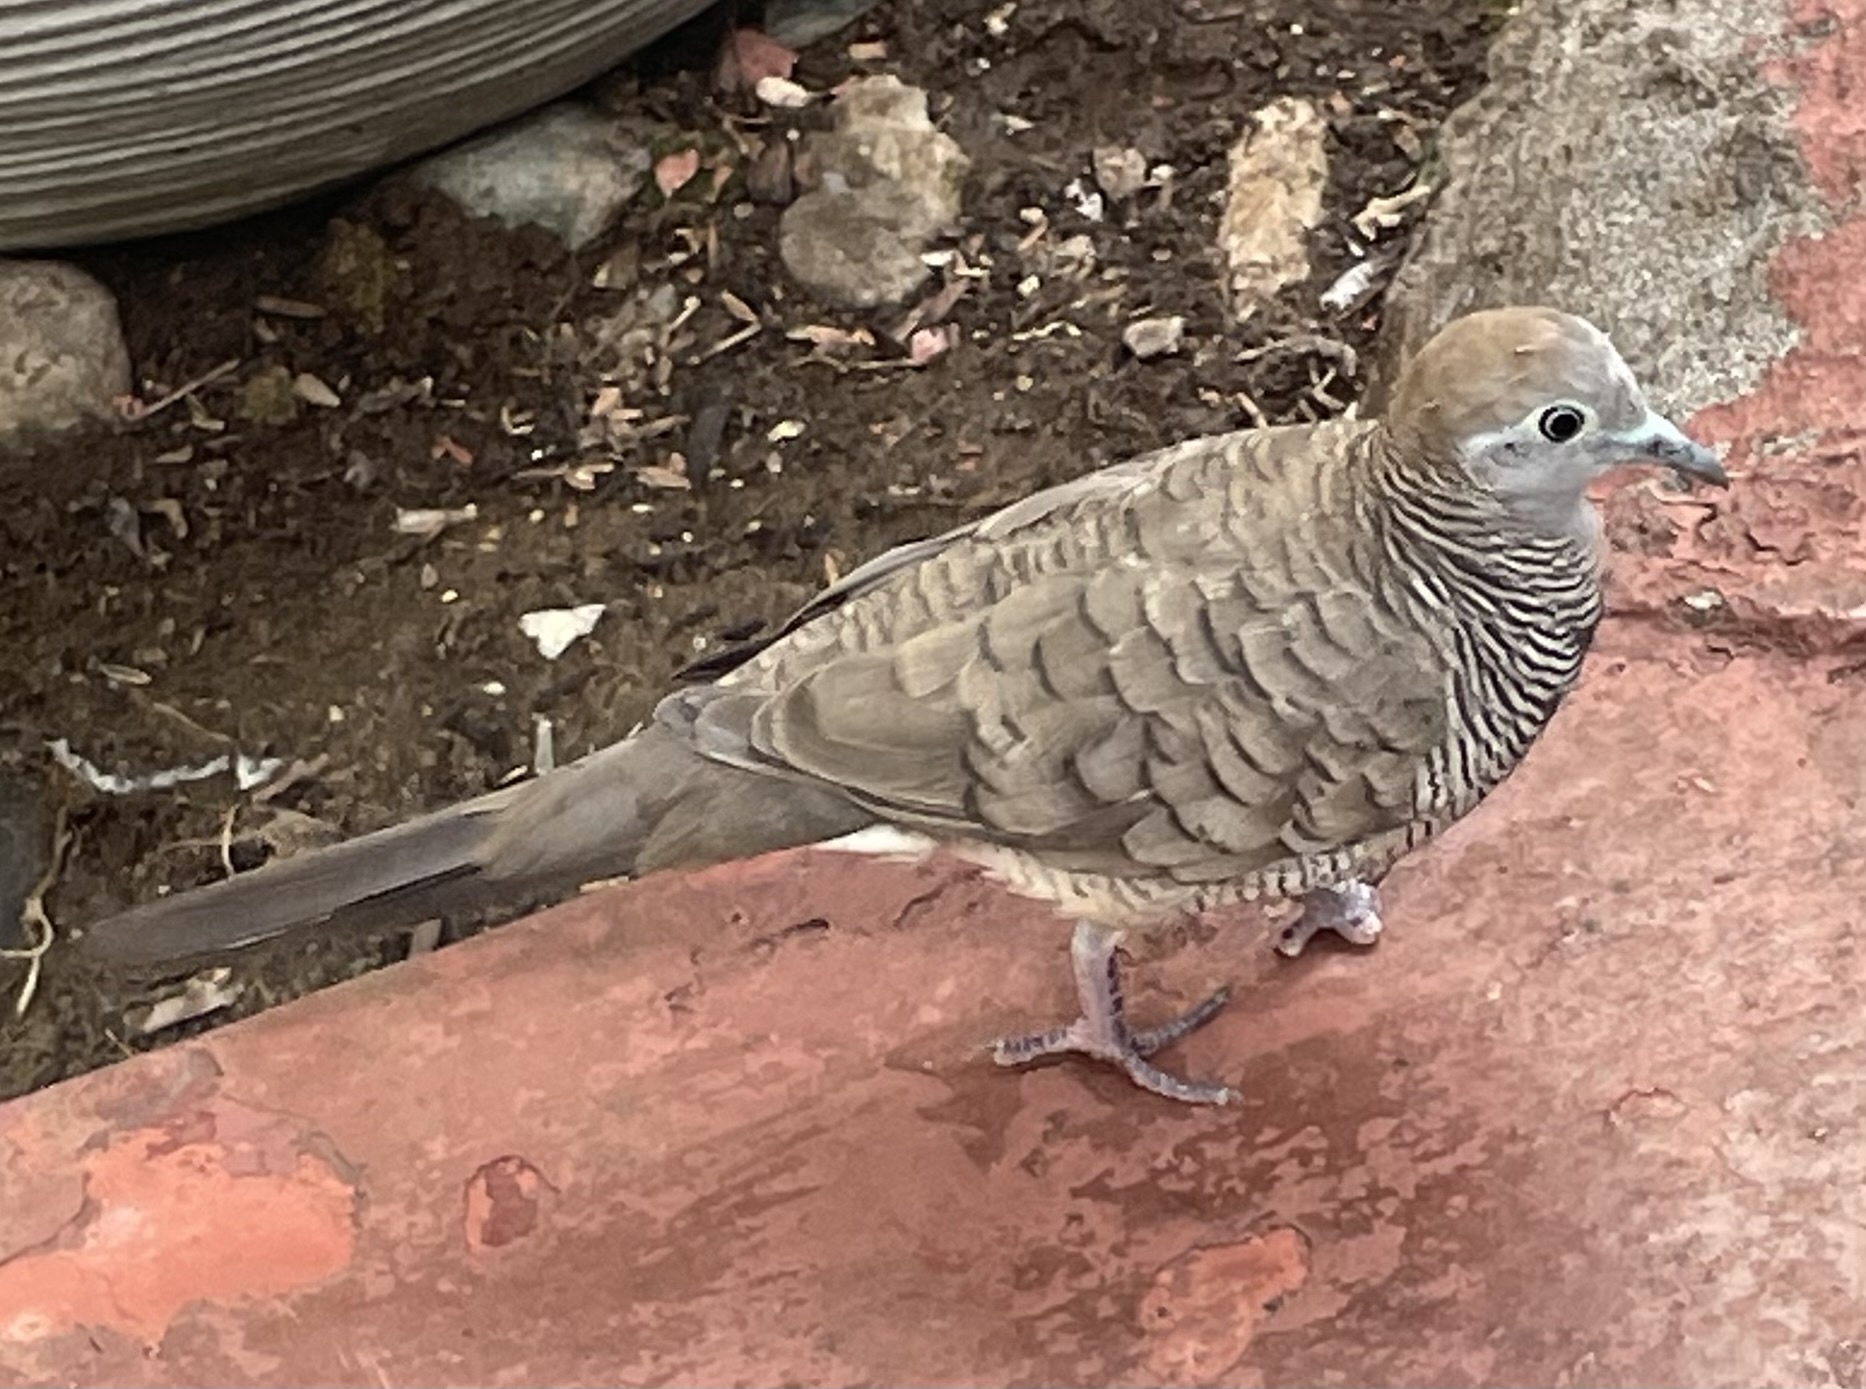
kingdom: Animalia
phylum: Chordata
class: Aves
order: Columbiformes
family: Columbidae
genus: Geopelia
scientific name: Geopelia striata
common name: Zebra dove
